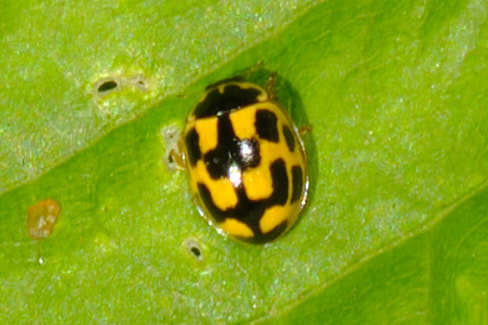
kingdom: Animalia
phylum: Arthropoda
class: Insecta
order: Coleoptera
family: Coccinellidae
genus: Propylaea
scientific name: Propylaea quatuordecimpunctata
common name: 14-spotted ladybird beetle
